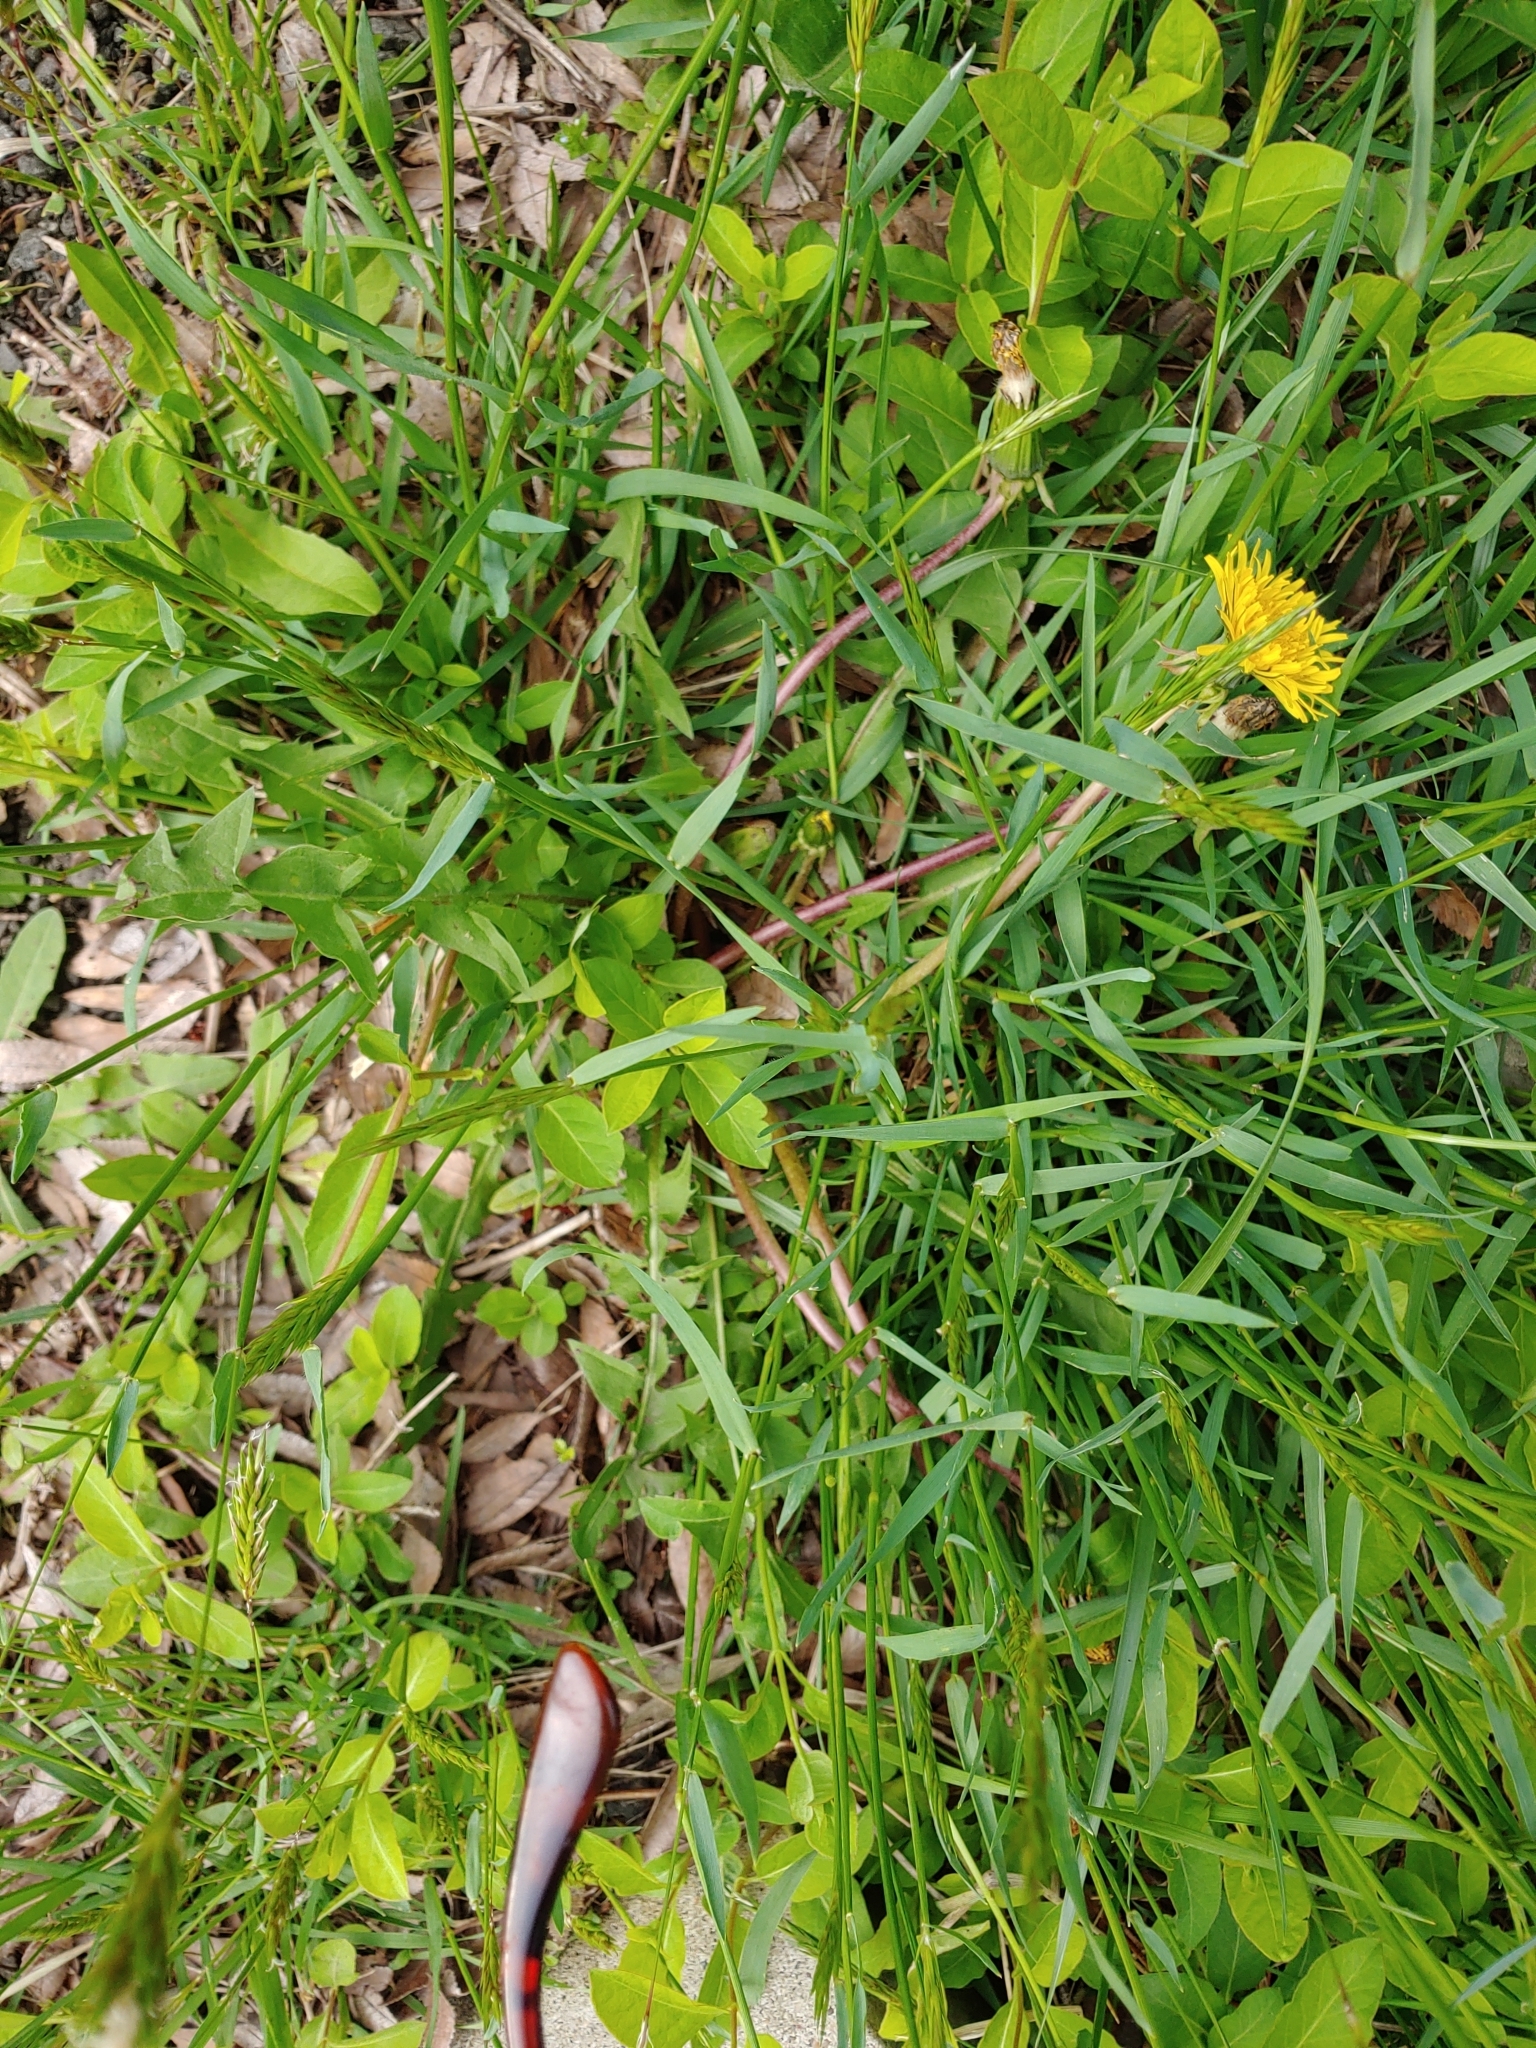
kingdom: Plantae
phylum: Tracheophyta
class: Magnoliopsida
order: Asterales
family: Asteraceae
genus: Taraxacum
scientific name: Taraxacum officinale
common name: Common dandelion
